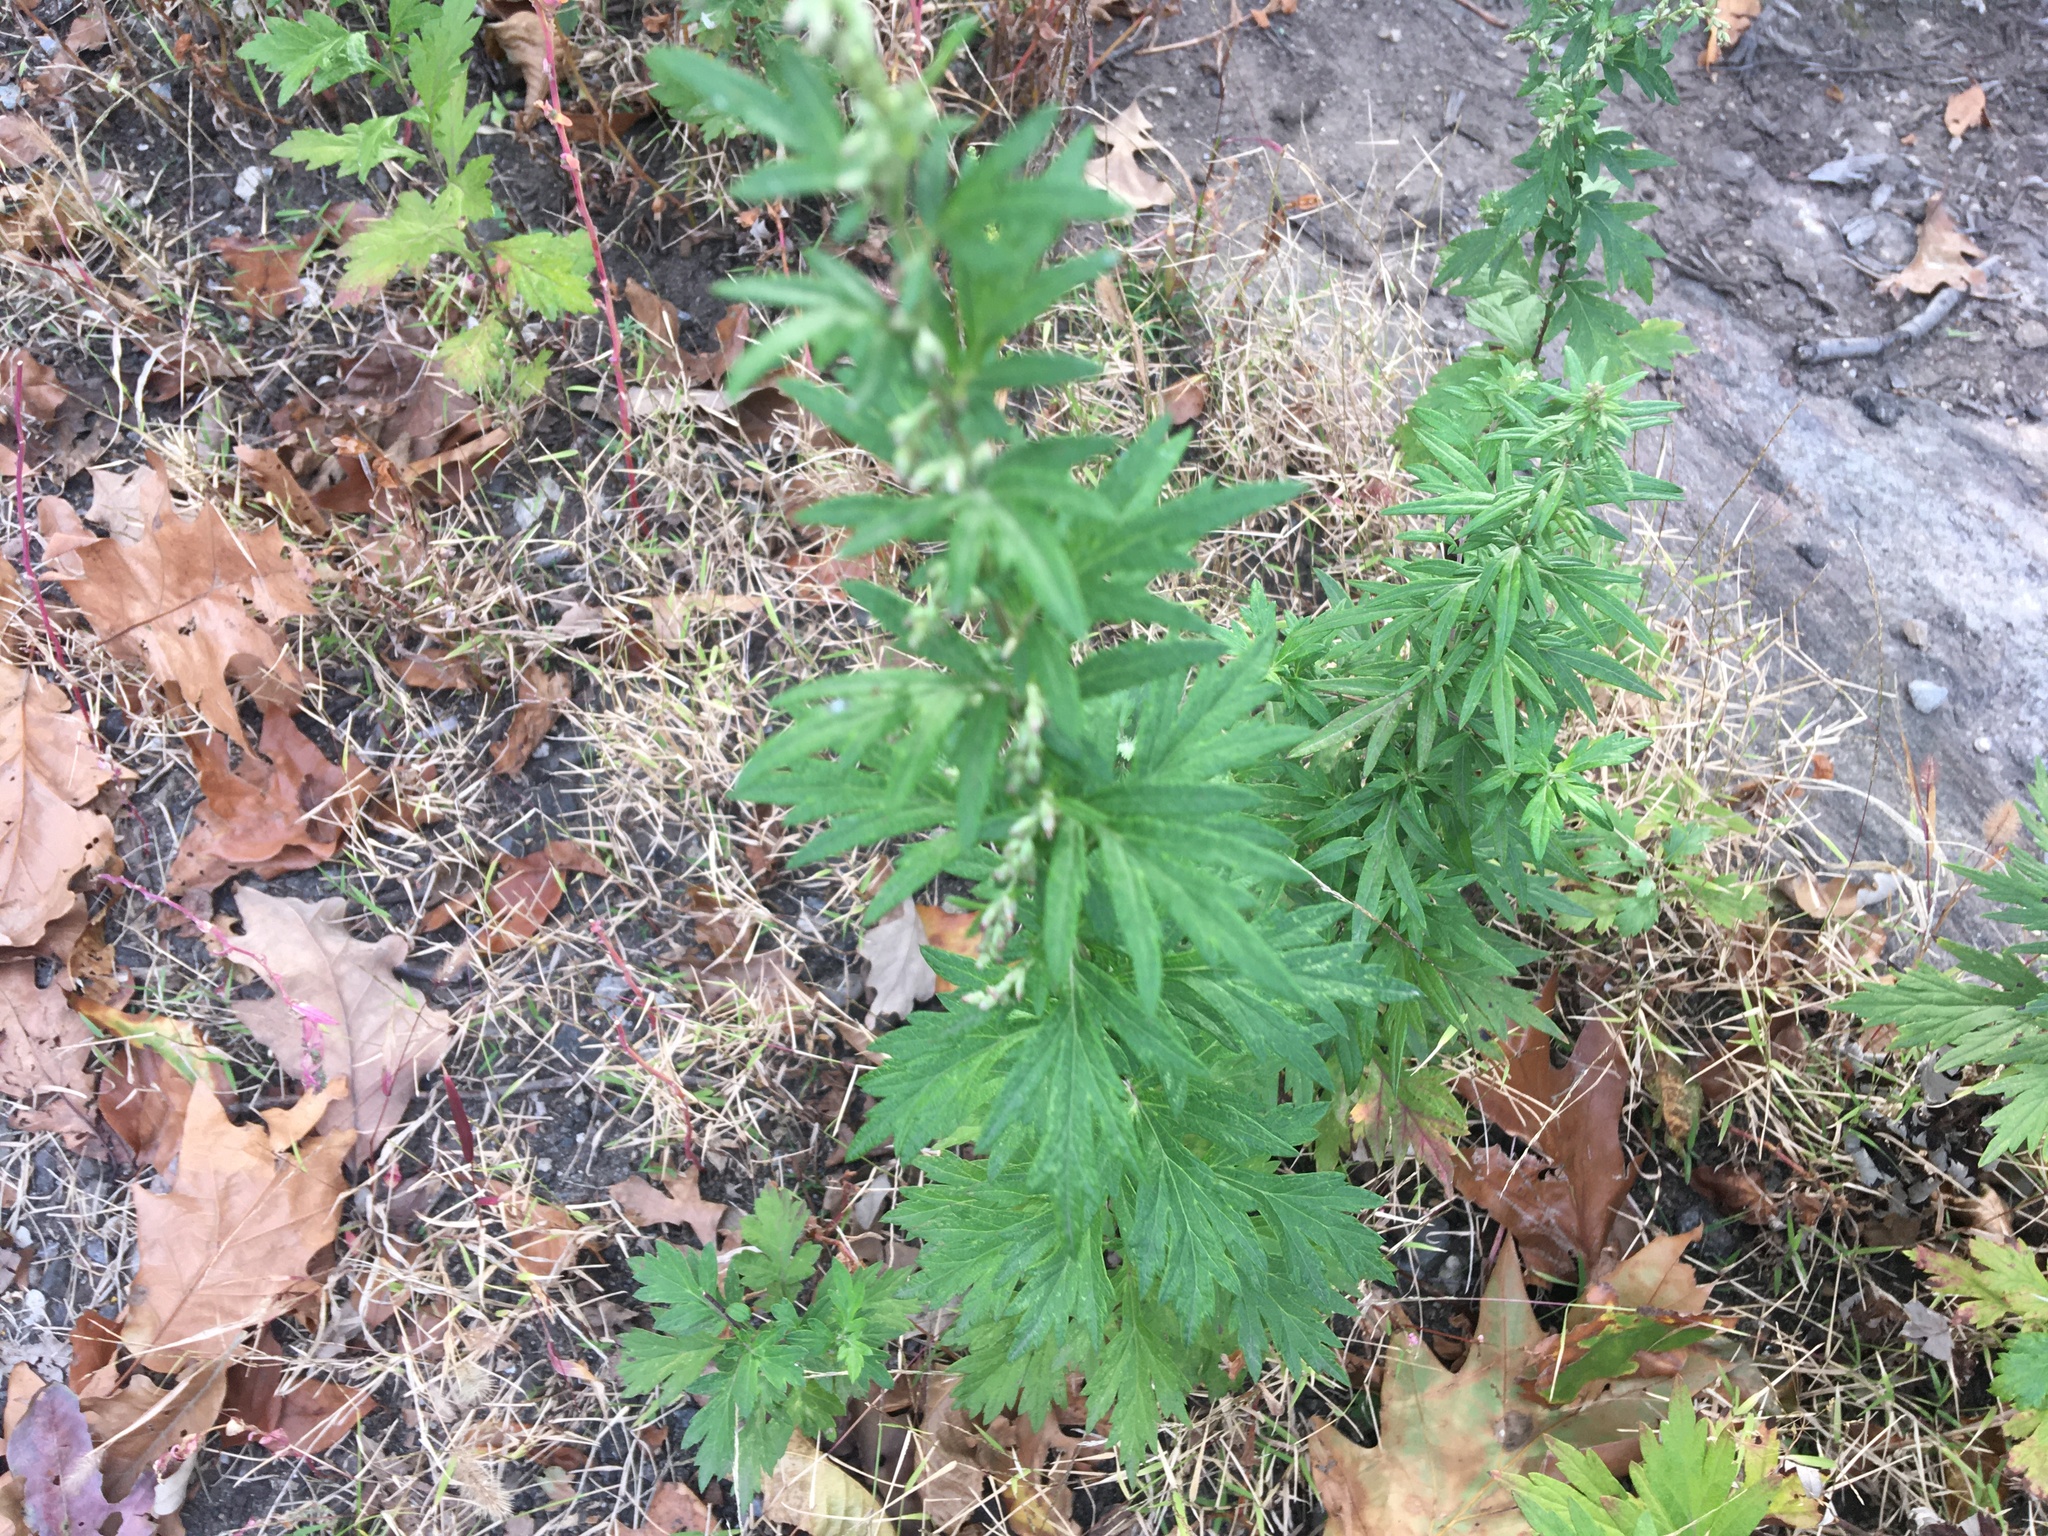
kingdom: Plantae
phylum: Tracheophyta
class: Magnoliopsida
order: Asterales
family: Asteraceae
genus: Artemisia
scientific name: Artemisia vulgaris
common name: Mugwort
